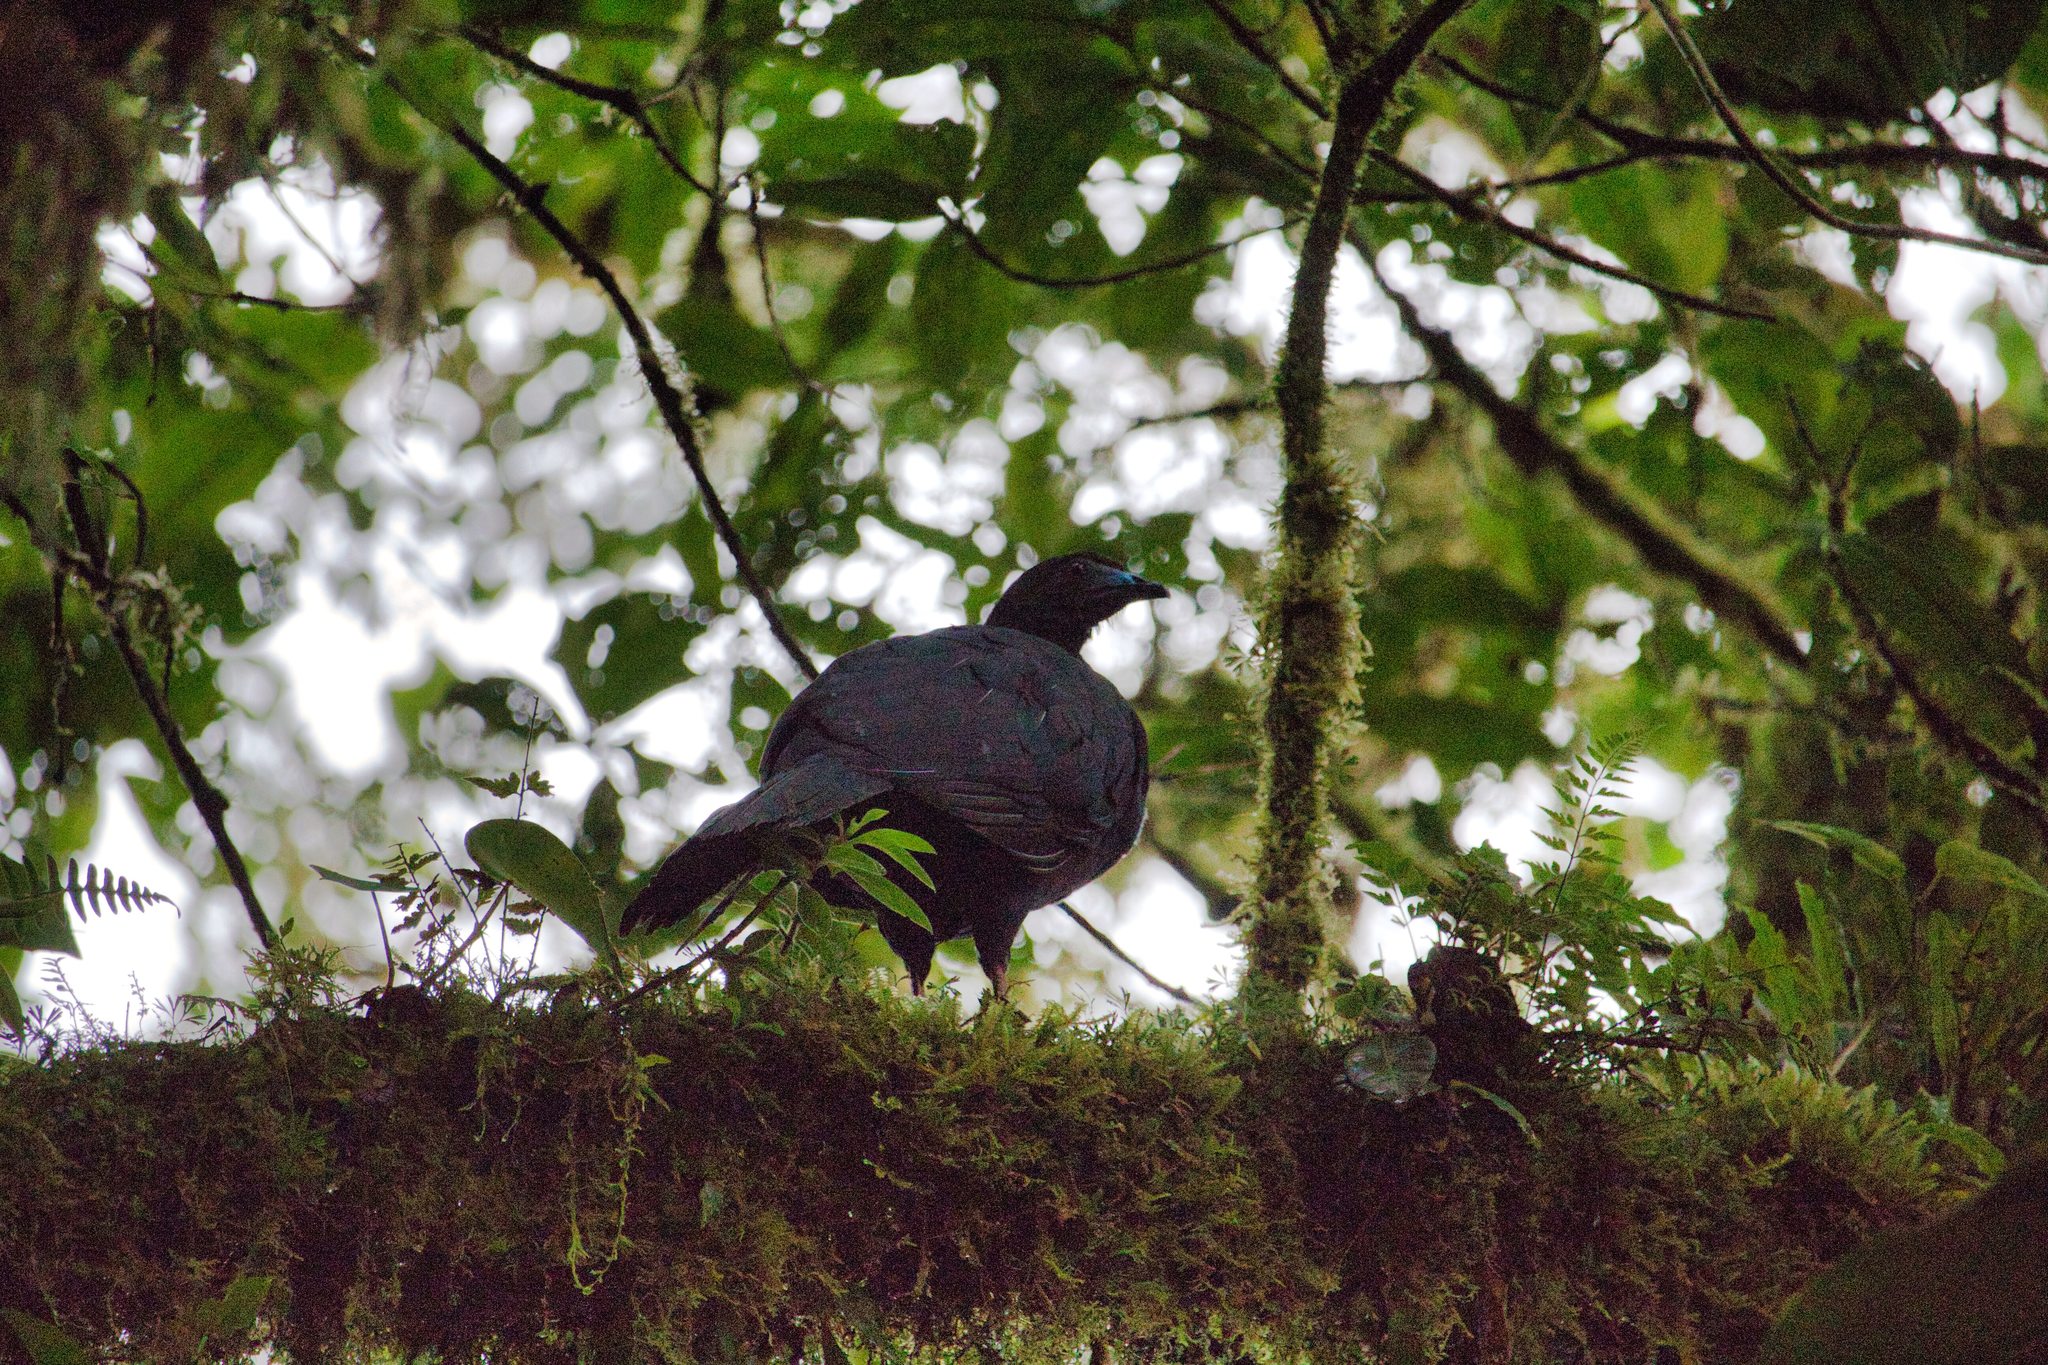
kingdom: Animalia
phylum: Chordata
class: Aves
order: Galliformes
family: Cracidae
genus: Chamaepetes
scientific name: Chamaepetes unicolor
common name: Black guan
